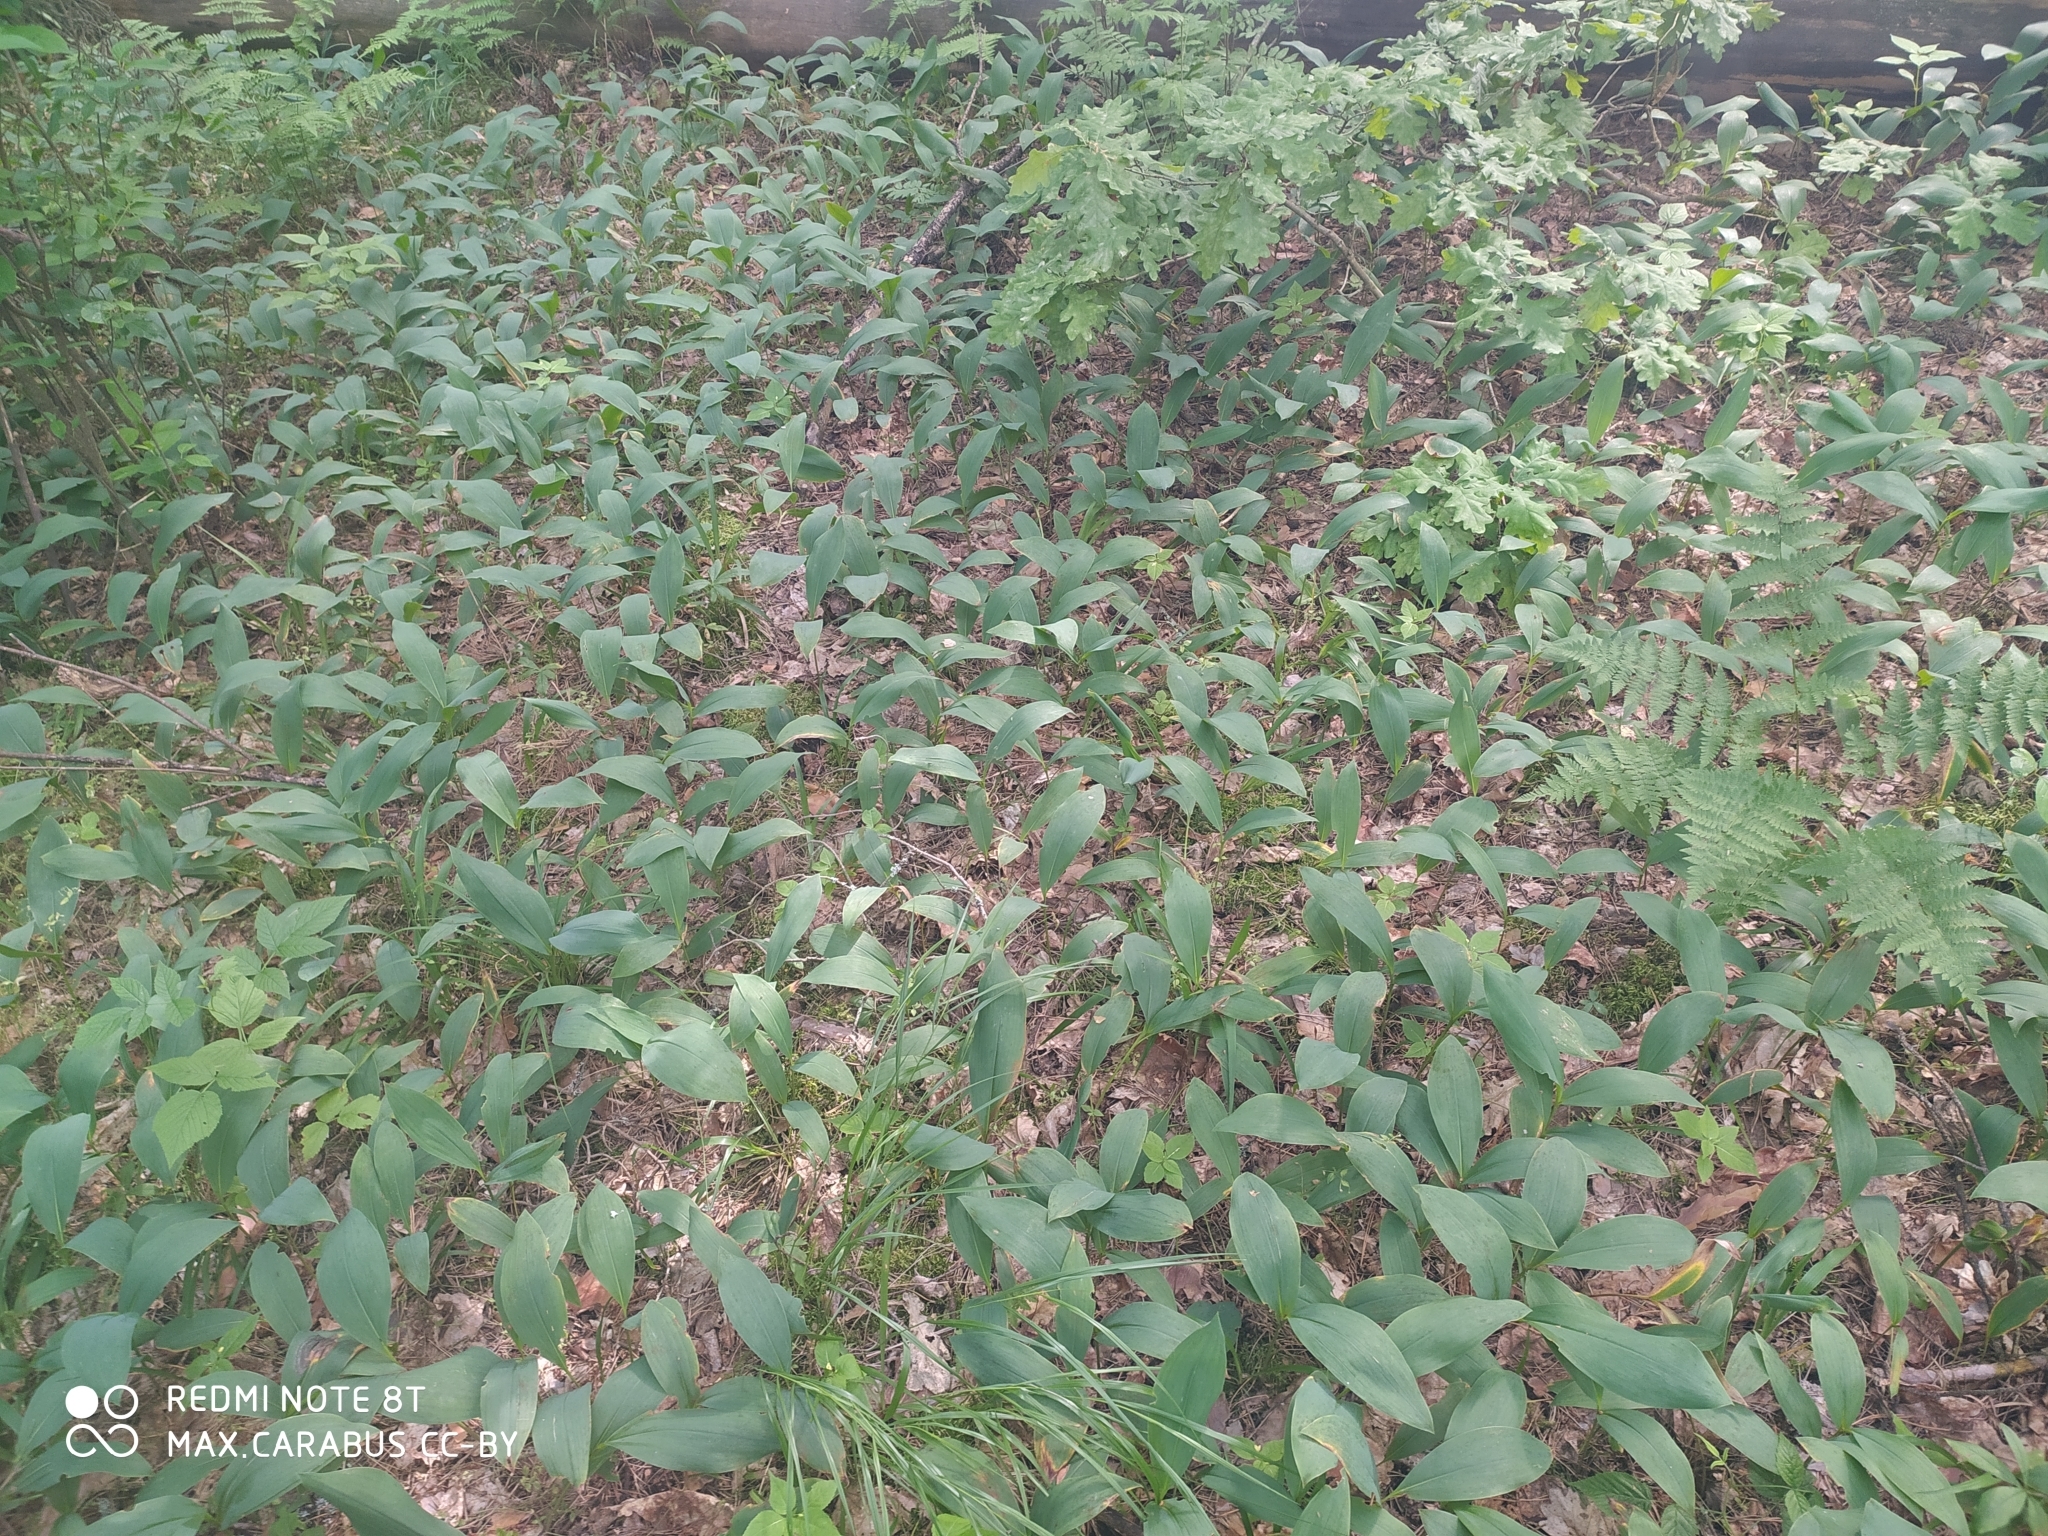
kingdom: Plantae
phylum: Tracheophyta
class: Liliopsida
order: Asparagales
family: Asparagaceae
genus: Convallaria
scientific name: Convallaria majalis
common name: Lily-of-the-valley
